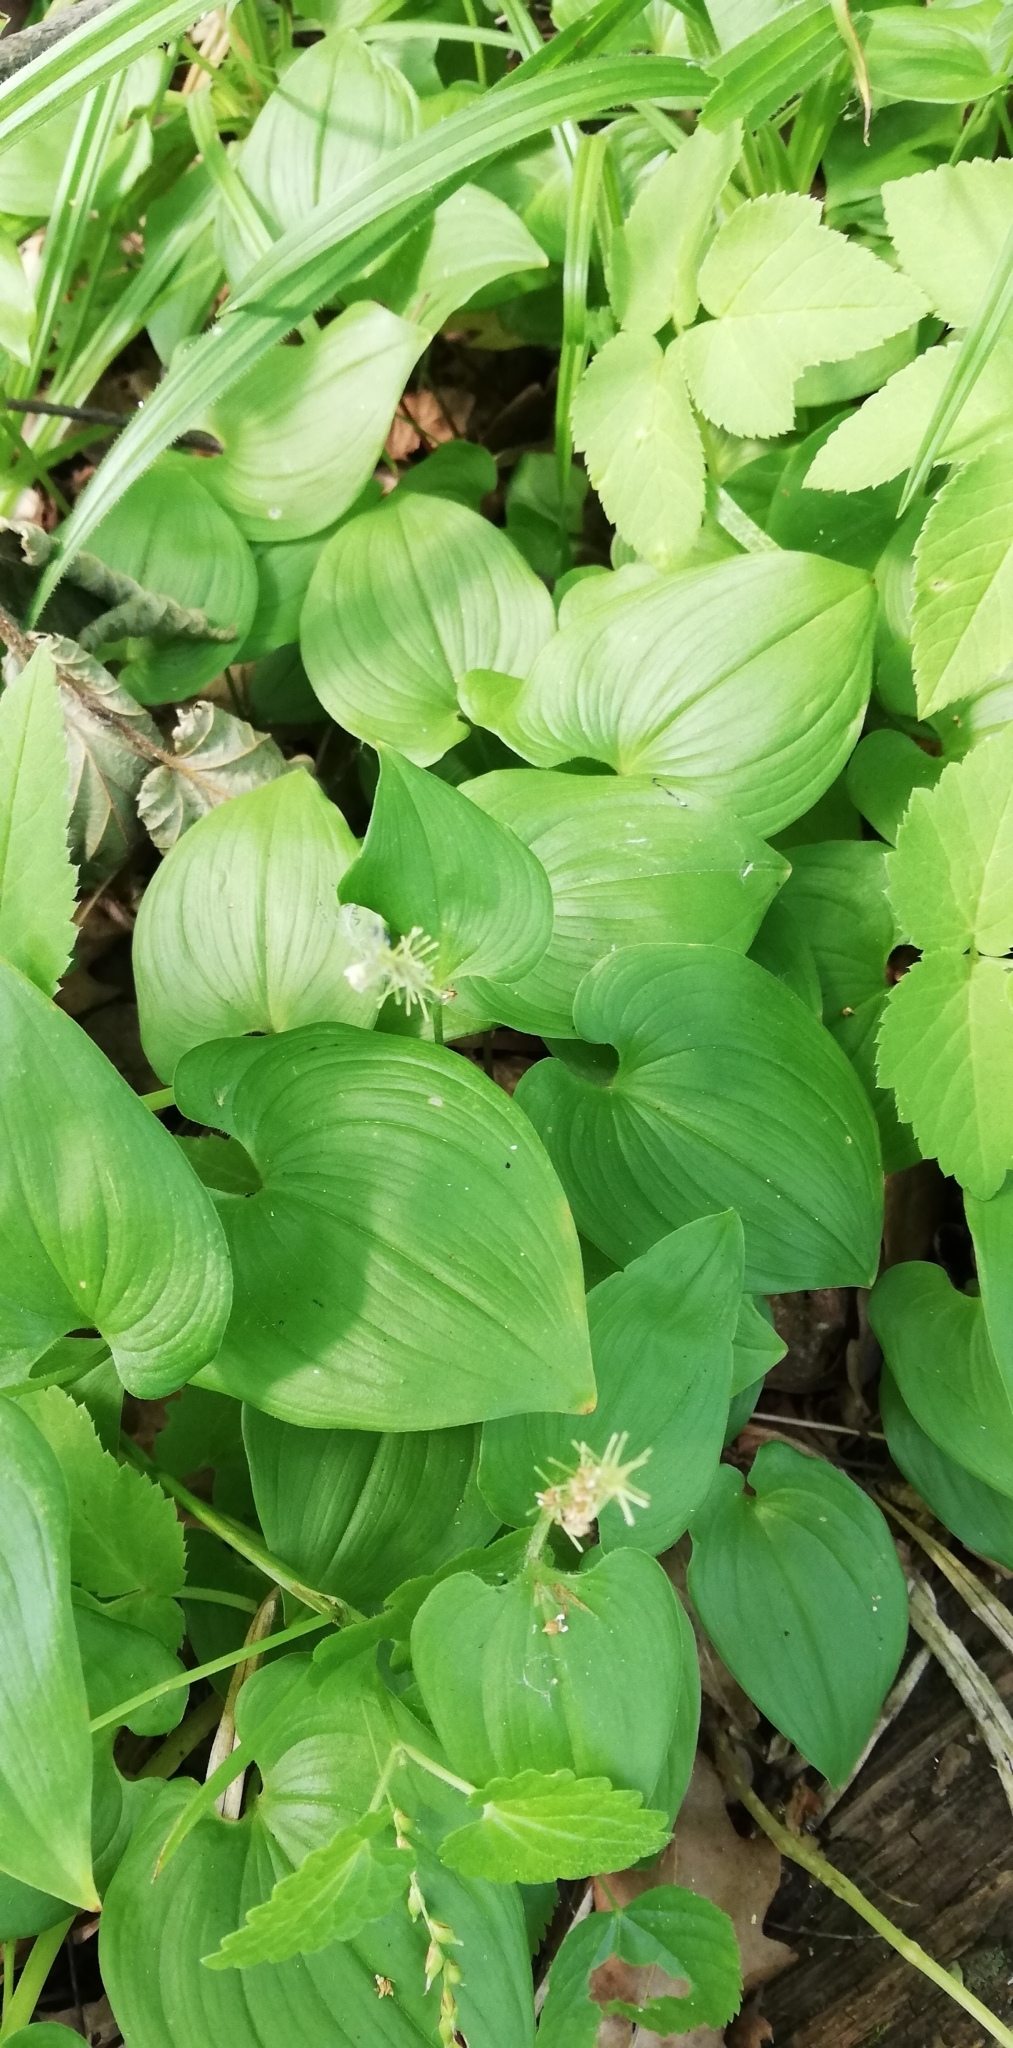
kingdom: Plantae
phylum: Tracheophyta
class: Liliopsida
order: Asparagales
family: Asparagaceae
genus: Maianthemum
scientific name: Maianthemum bifolium
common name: May lily
